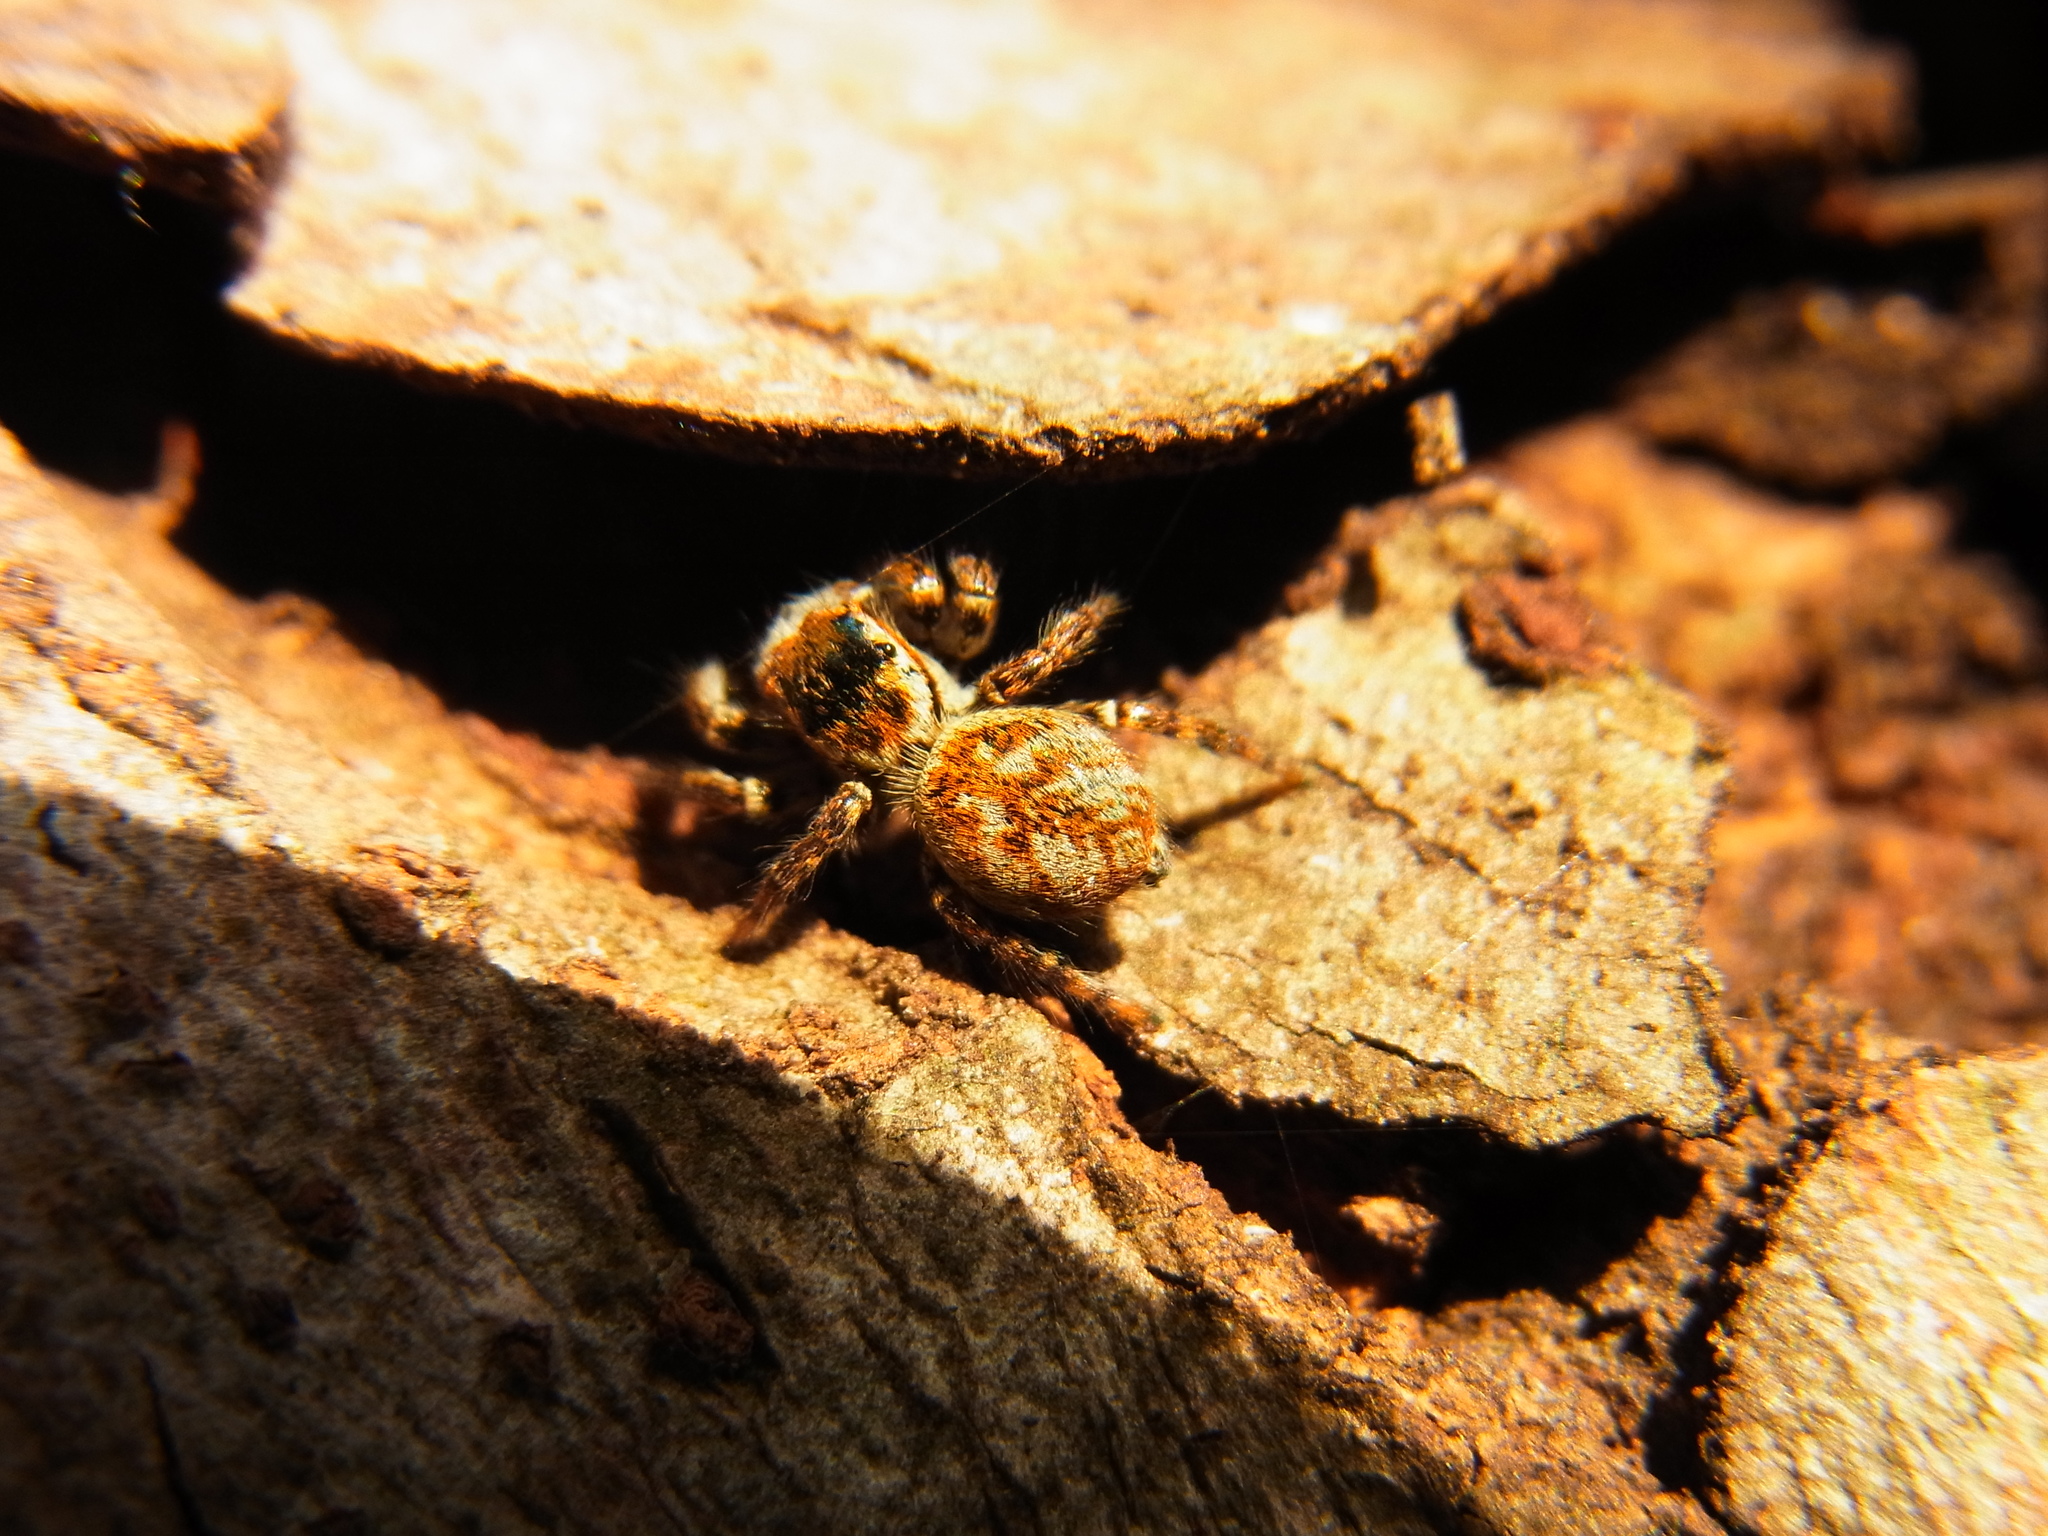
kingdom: Animalia
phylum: Arthropoda
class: Arachnida
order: Araneae
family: Salticidae
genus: Carrhotus
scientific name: Carrhotus xanthogramma
